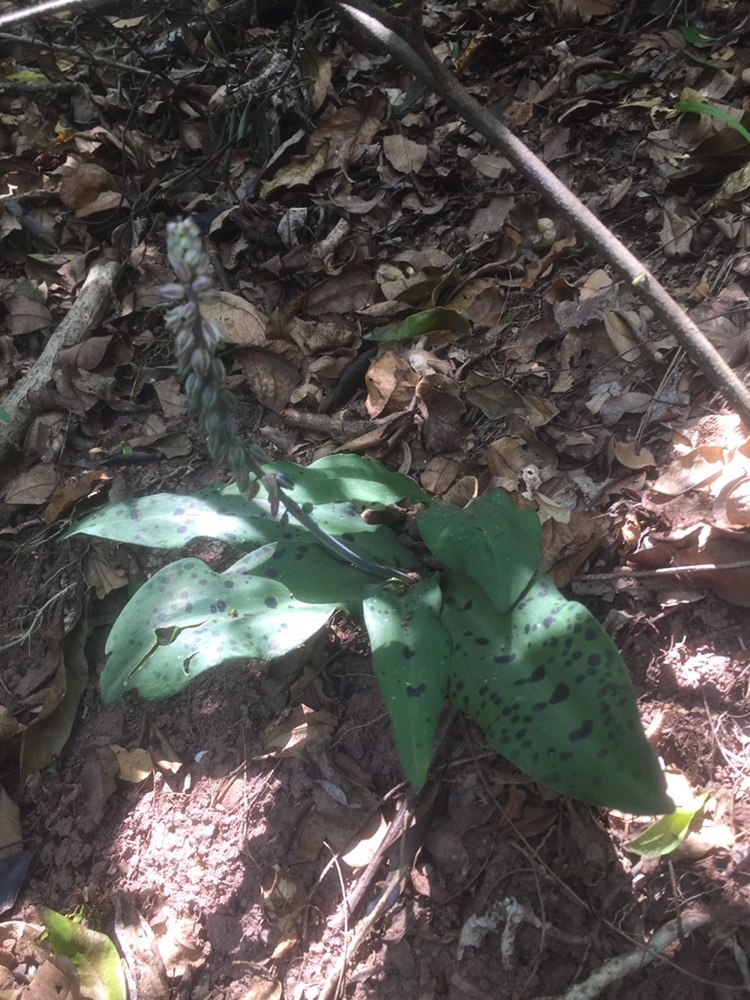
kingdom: Plantae
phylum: Tracheophyta
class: Liliopsida
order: Asparagales
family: Asparagaceae
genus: Resnova
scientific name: Resnova humifusa
